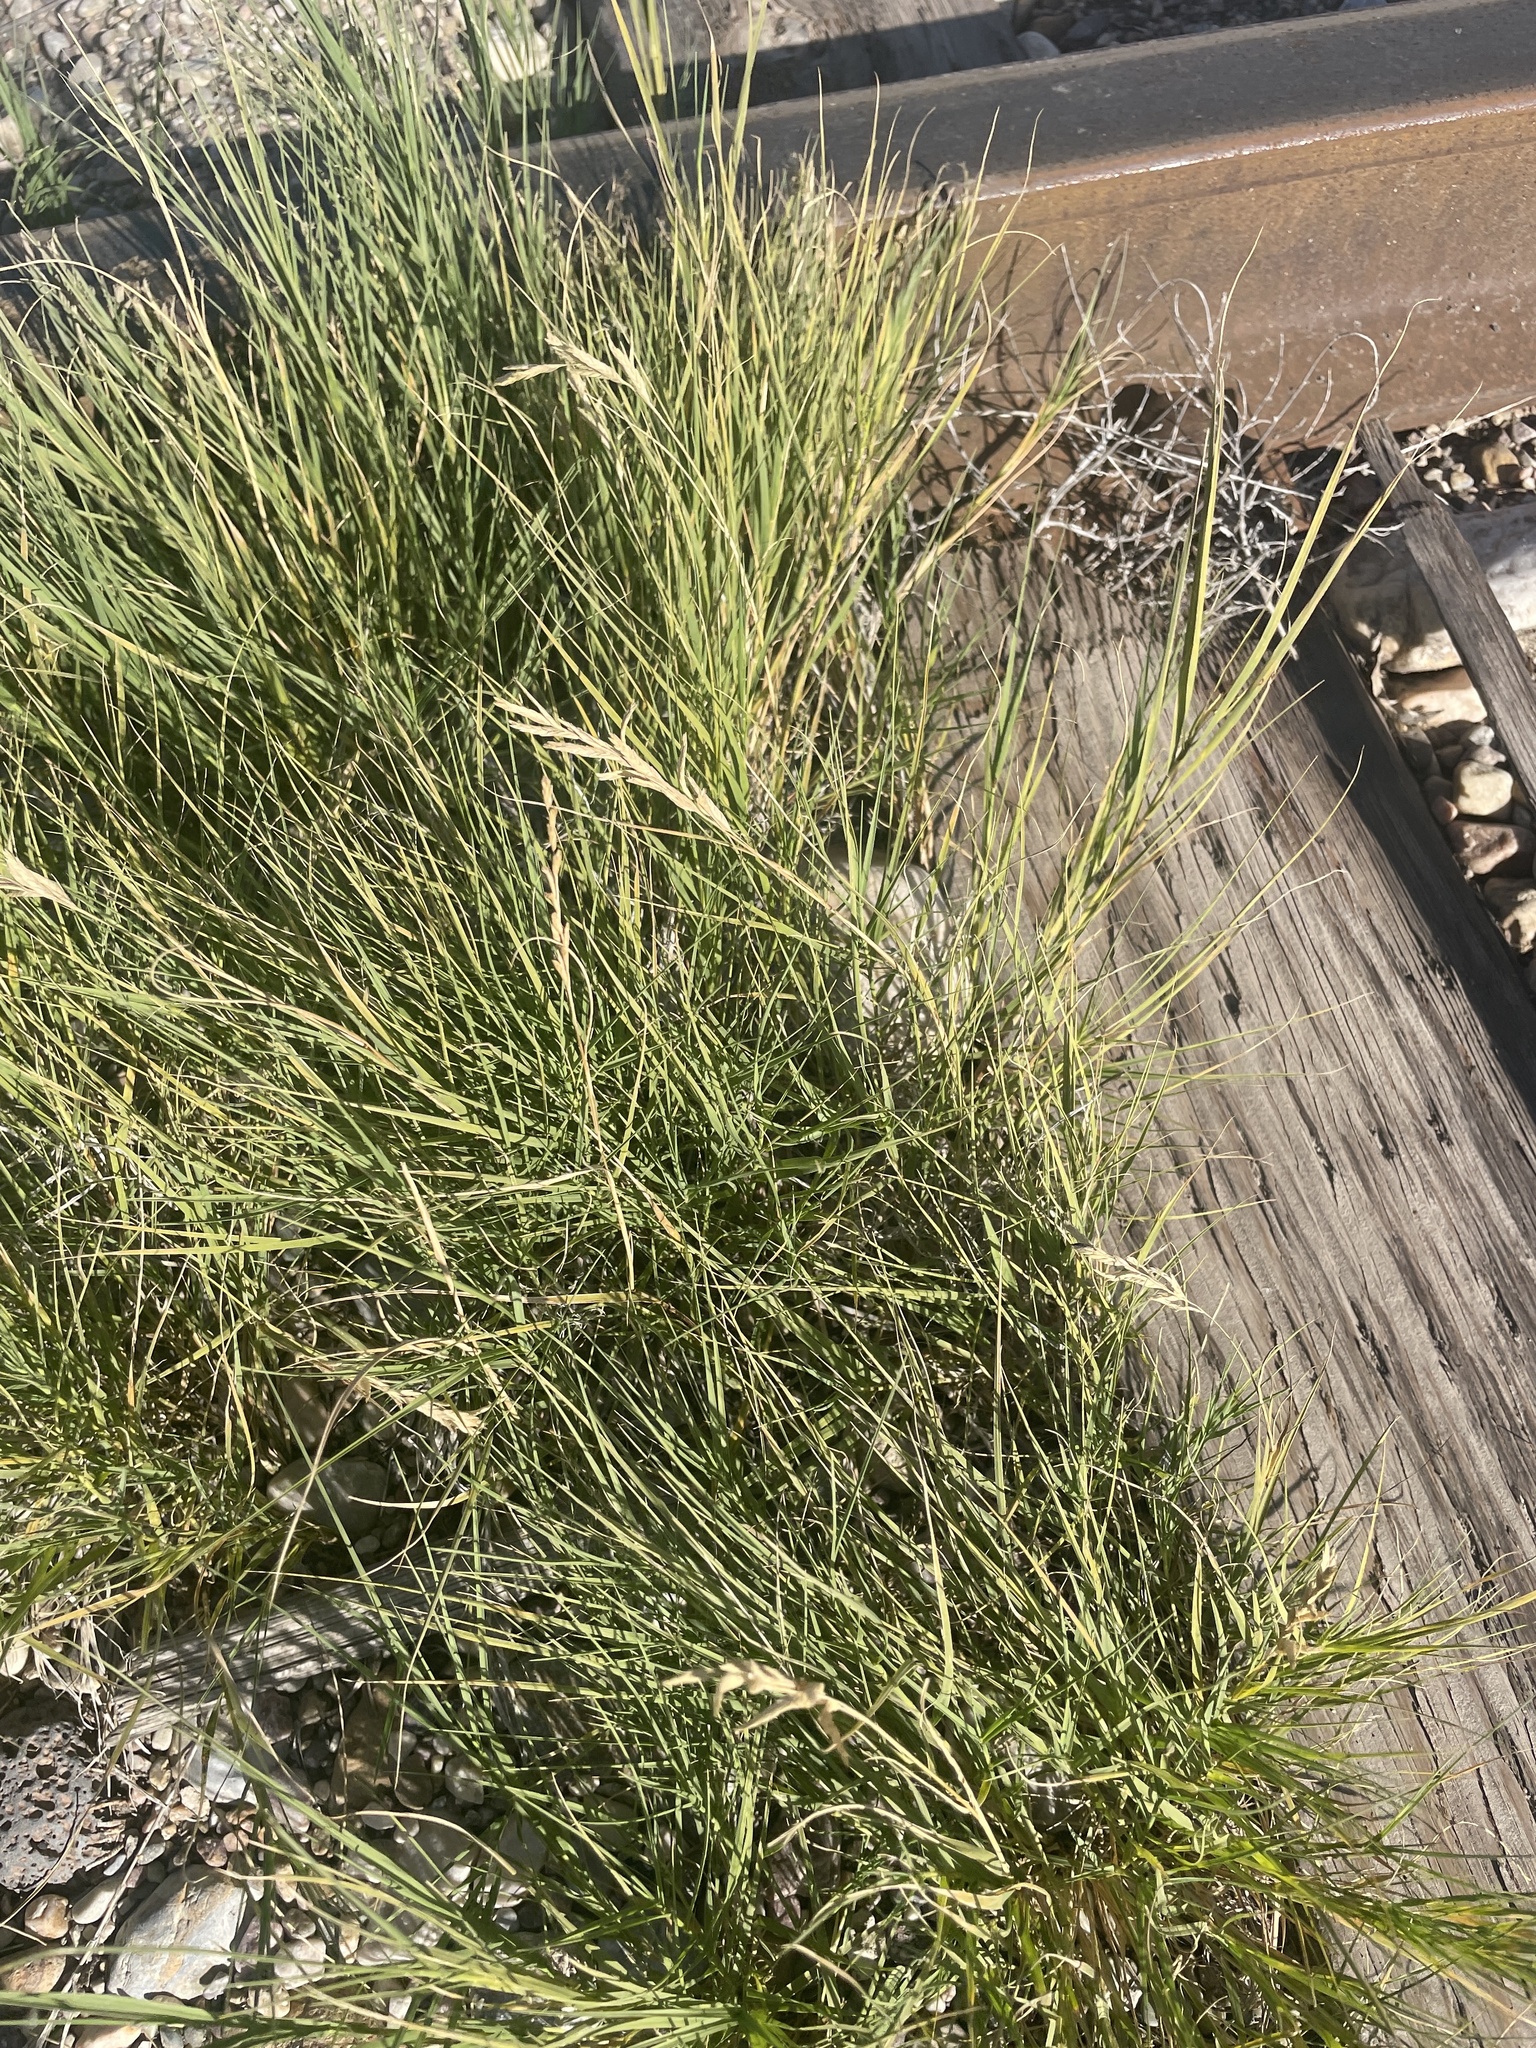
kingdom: Plantae
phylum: Tracheophyta
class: Liliopsida
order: Poales
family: Poaceae
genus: Distichlis
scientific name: Distichlis spicata
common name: Saltgrass
